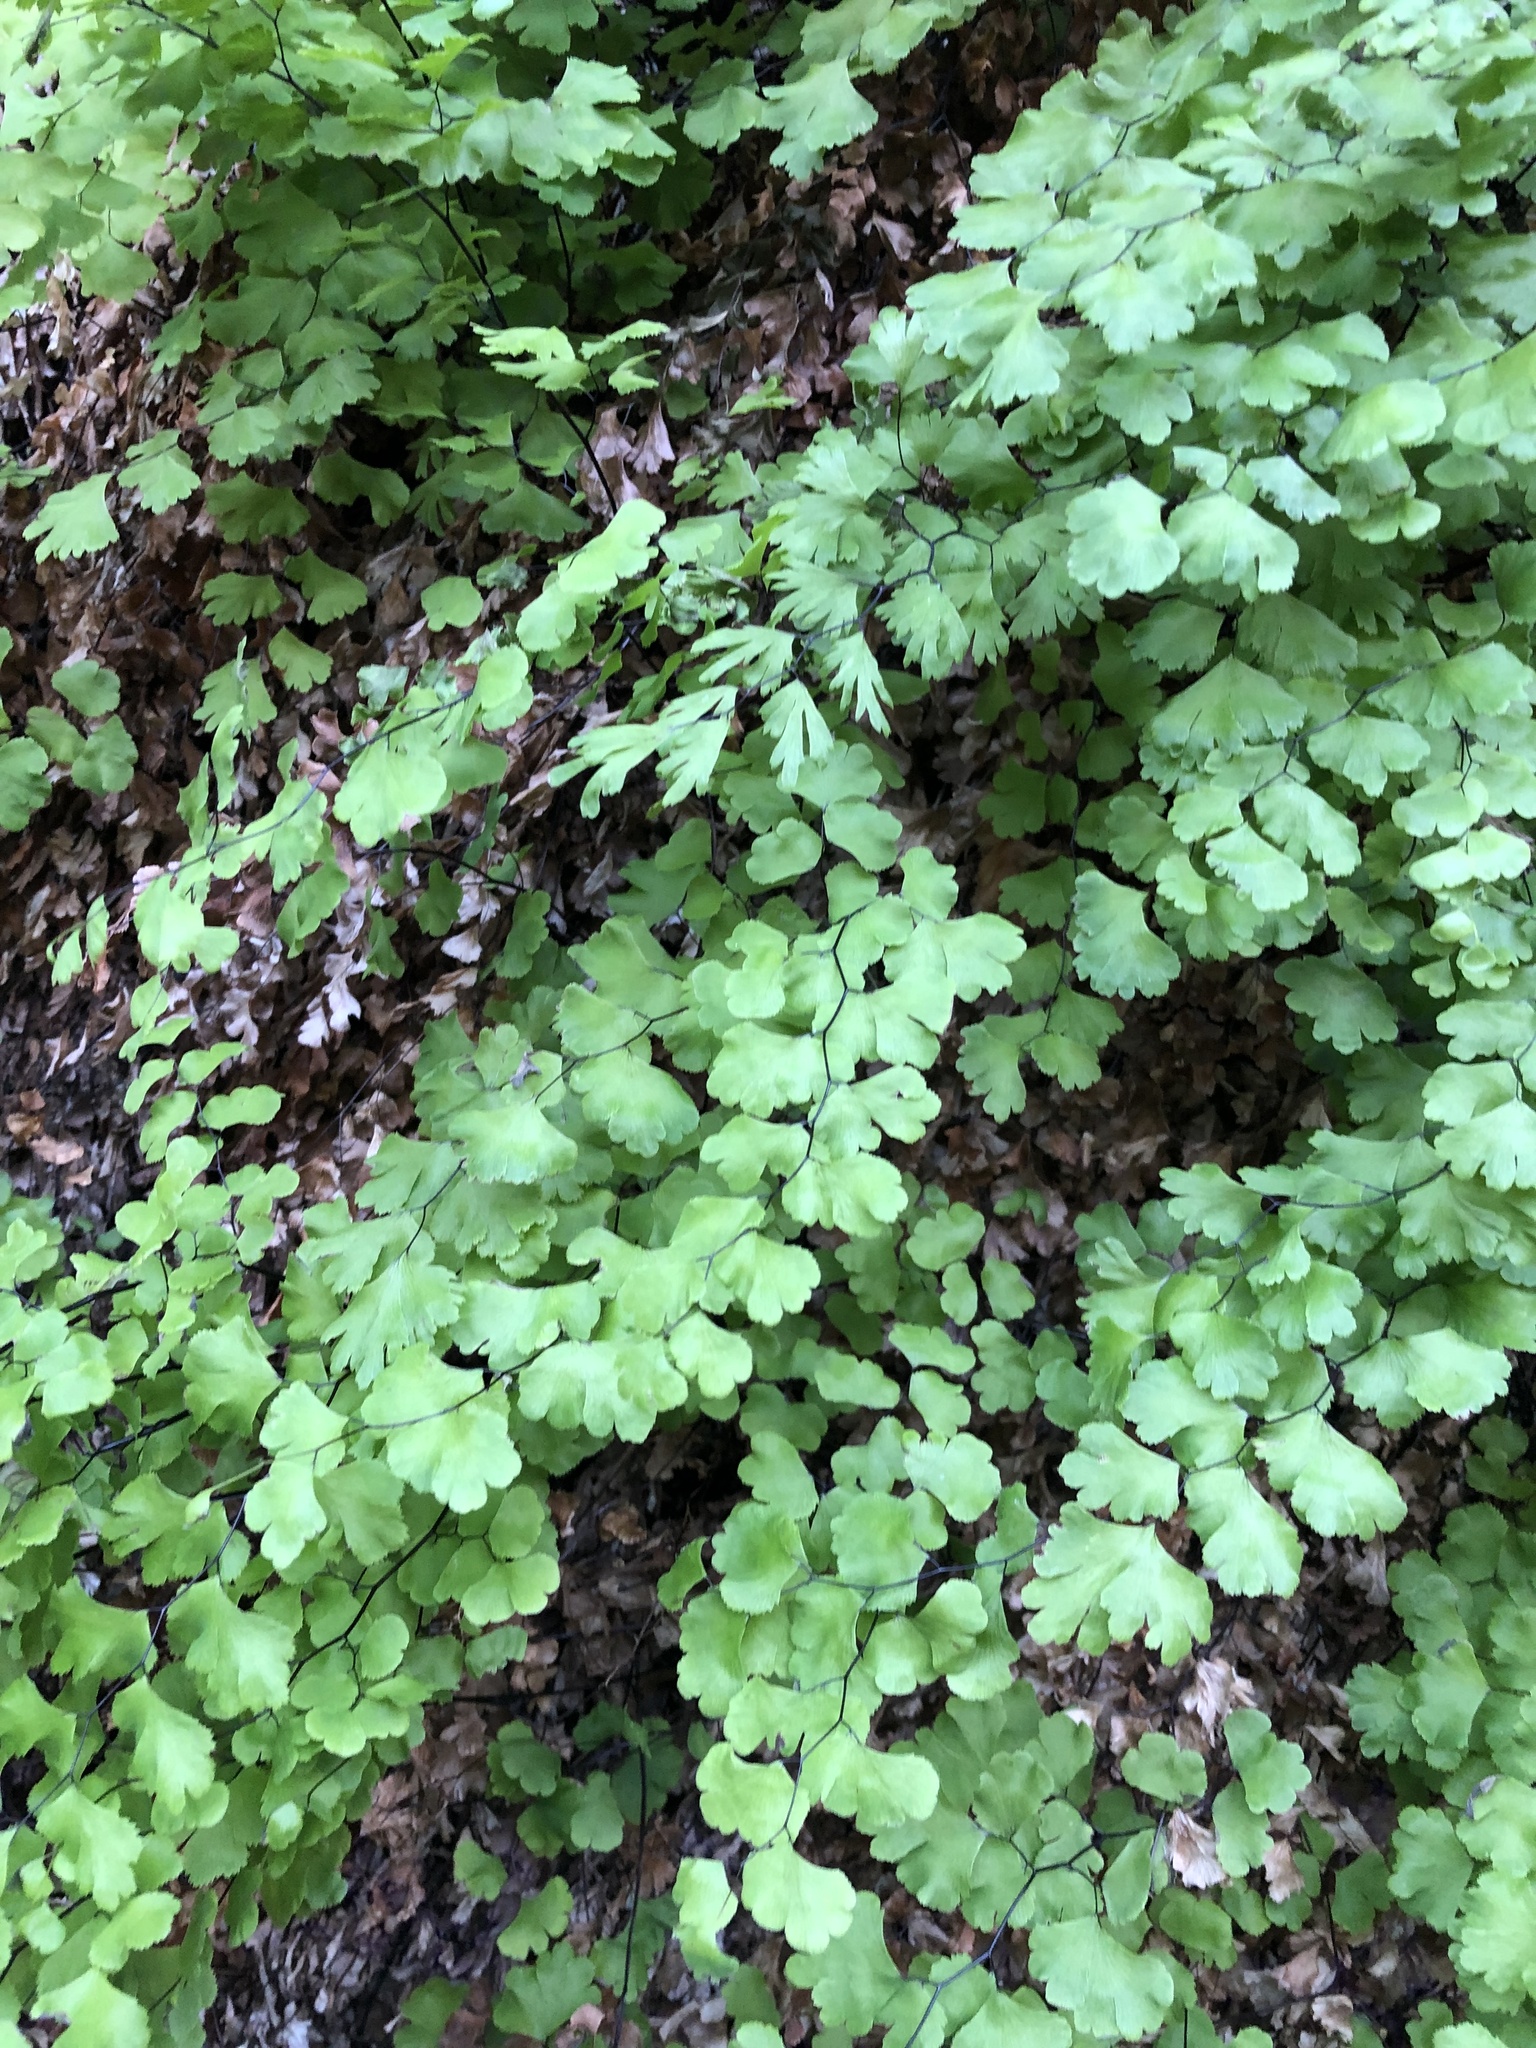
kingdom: Plantae
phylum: Tracheophyta
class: Polypodiopsida
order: Polypodiales
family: Pteridaceae
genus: Adiantum
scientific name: Adiantum capillus-veneris
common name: Maidenhair fern
